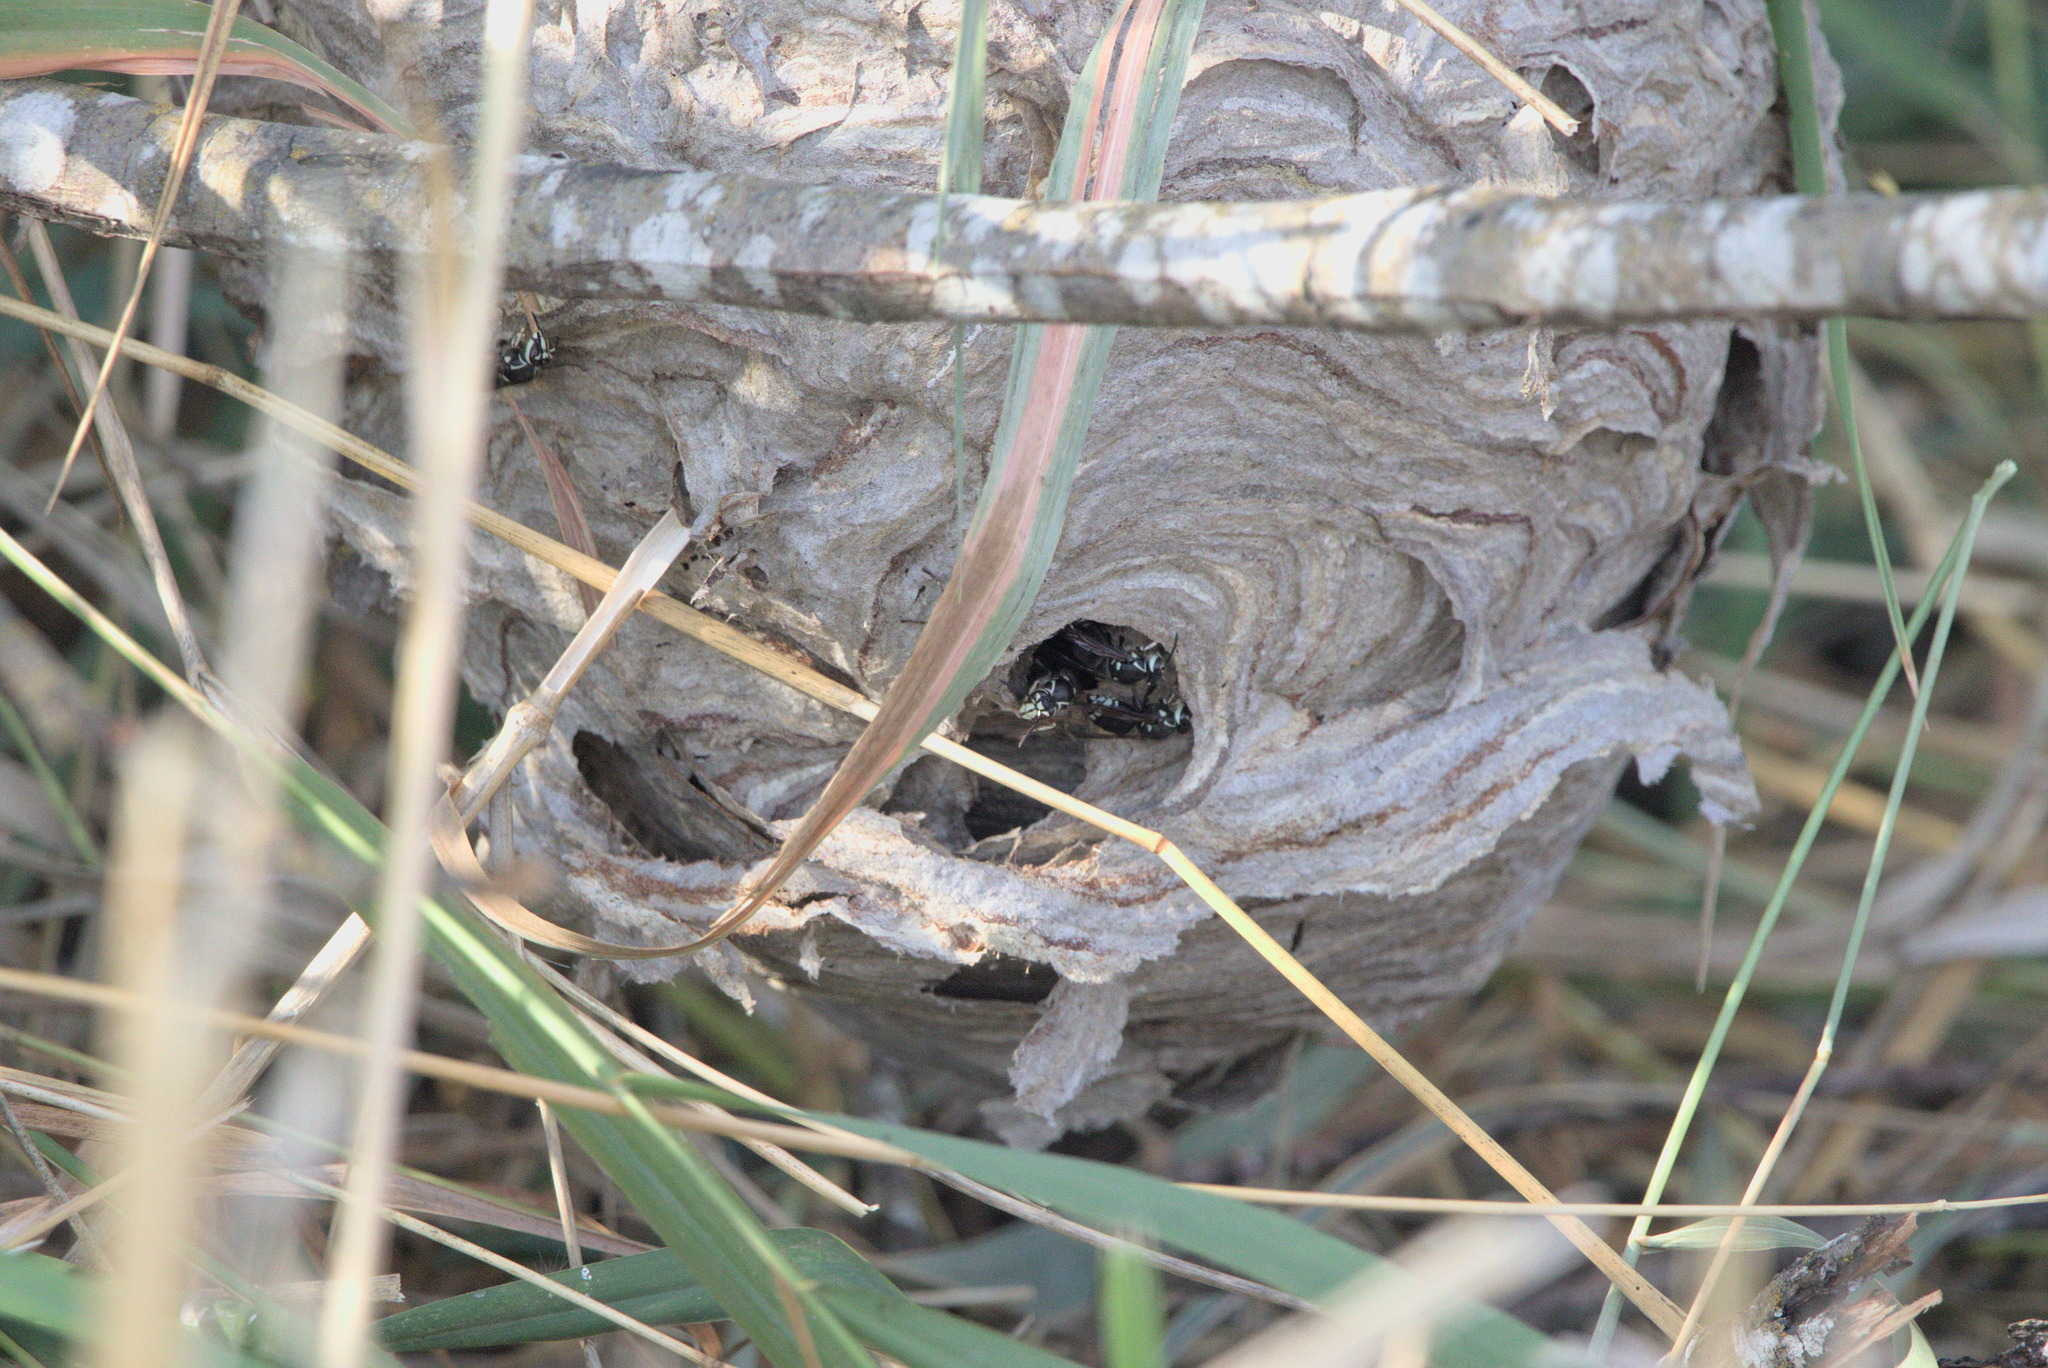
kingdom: Animalia
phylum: Arthropoda
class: Insecta
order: Hymenoptera
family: Vespidae
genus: Dolichovespula
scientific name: Dolichovespula maculata
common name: Bald-faced hornet
